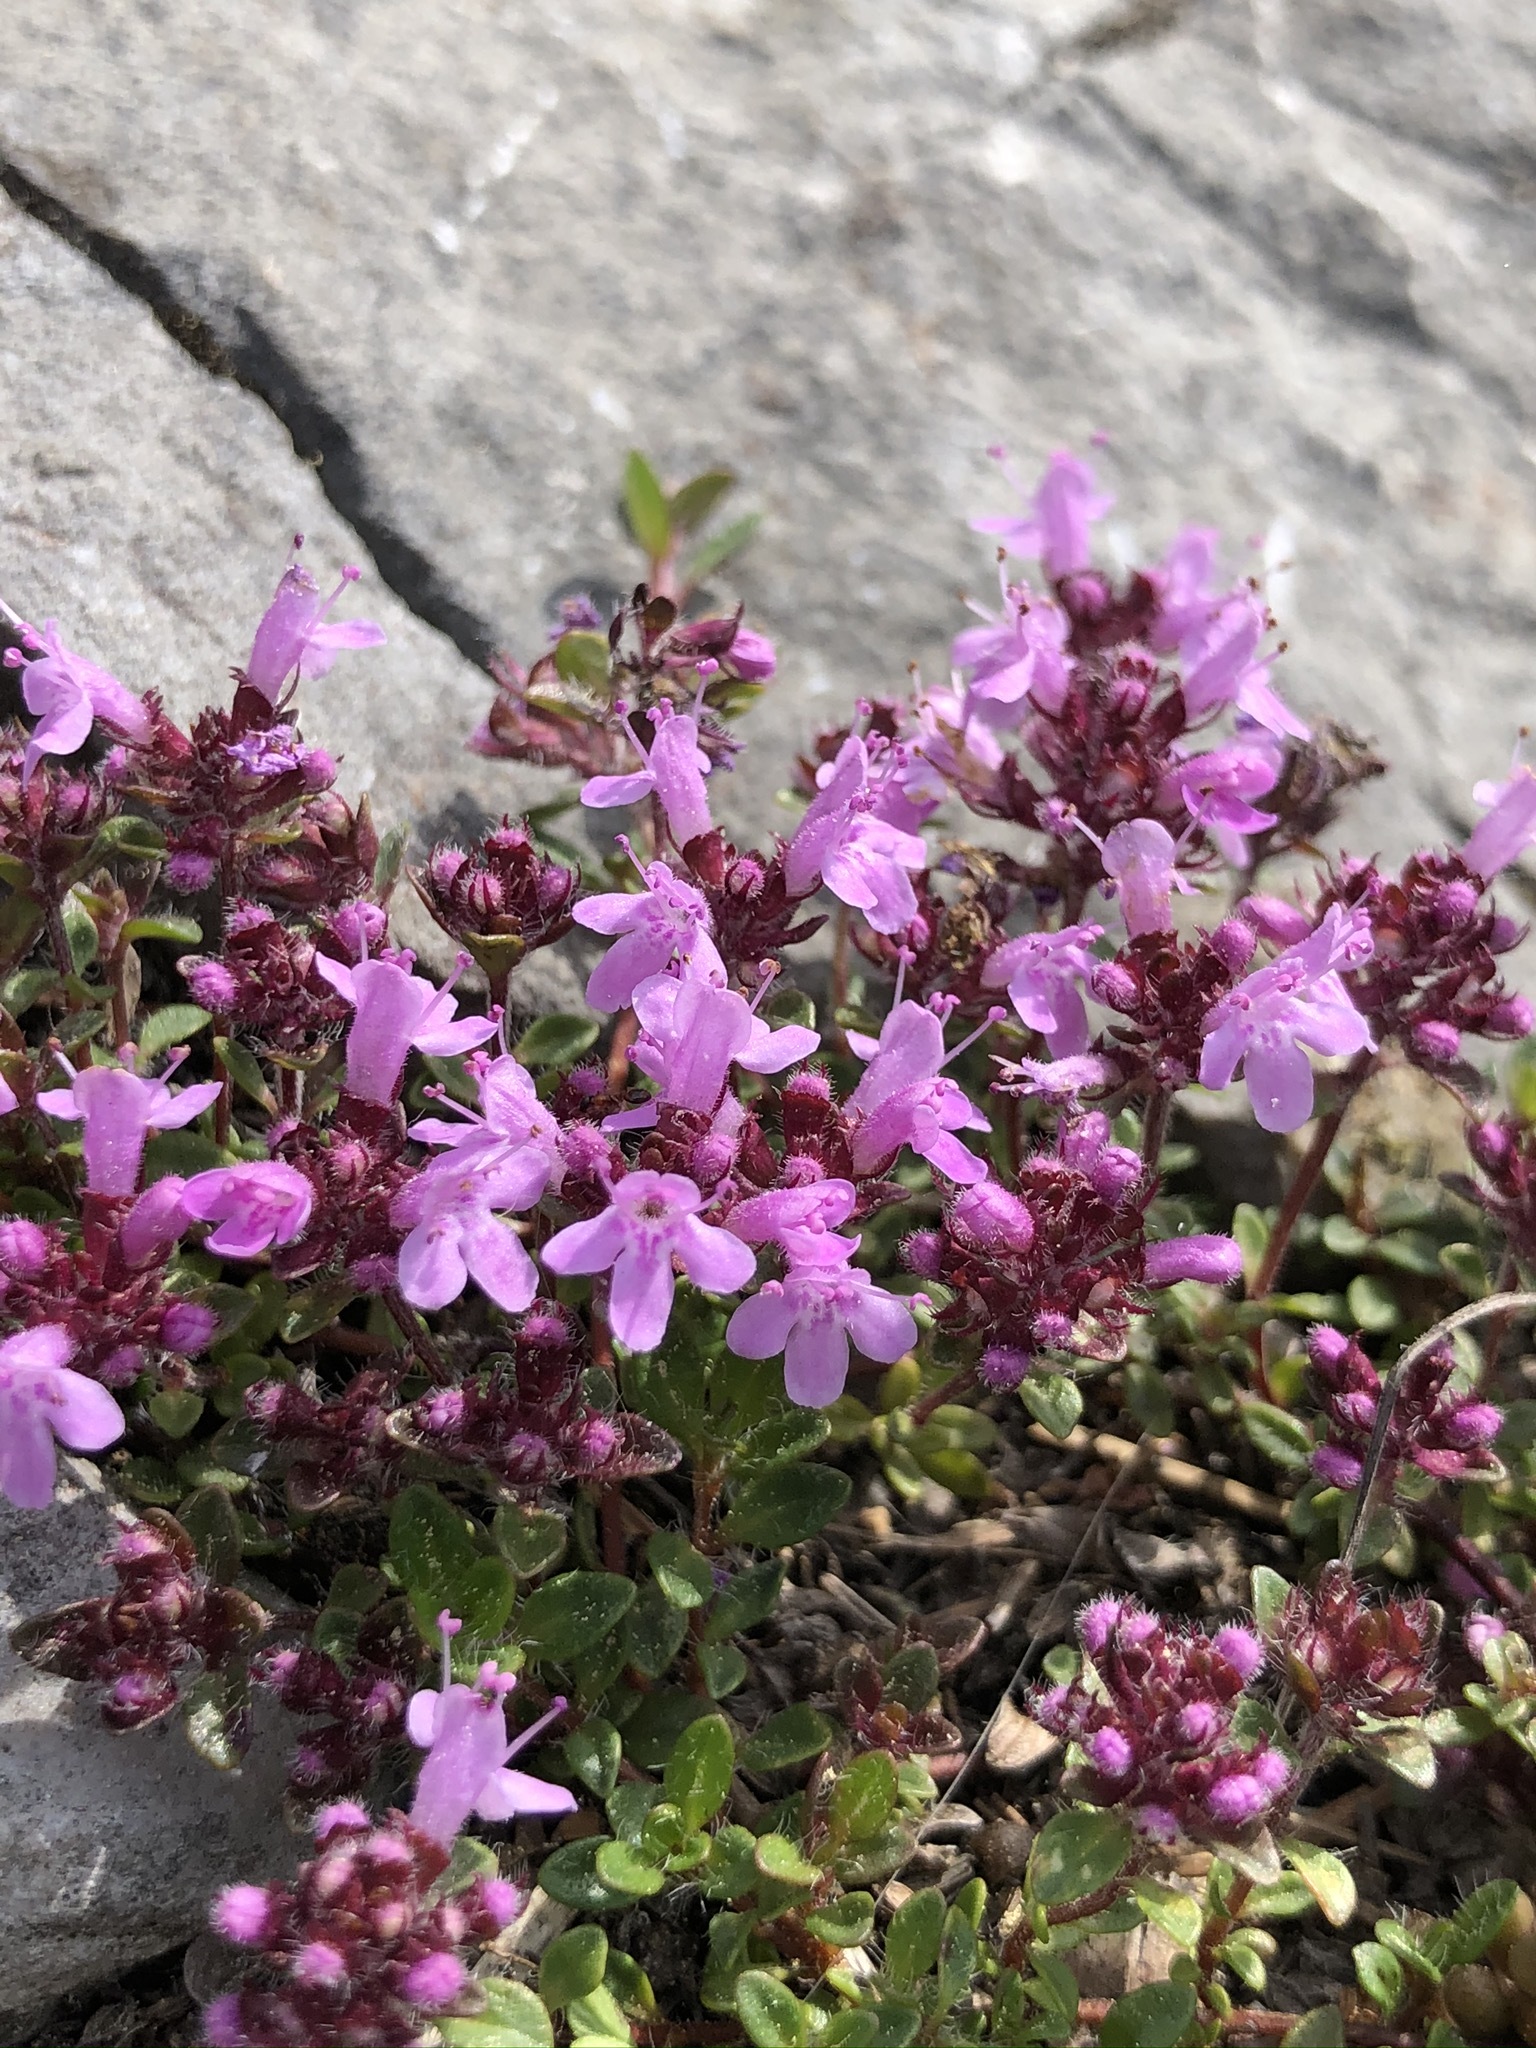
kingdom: Plantae
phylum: Tracheophyta
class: Magnoliopsida
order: Lamiales
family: Lamiaceae
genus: Thymus
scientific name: Thymus praecox
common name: Wild thyme
